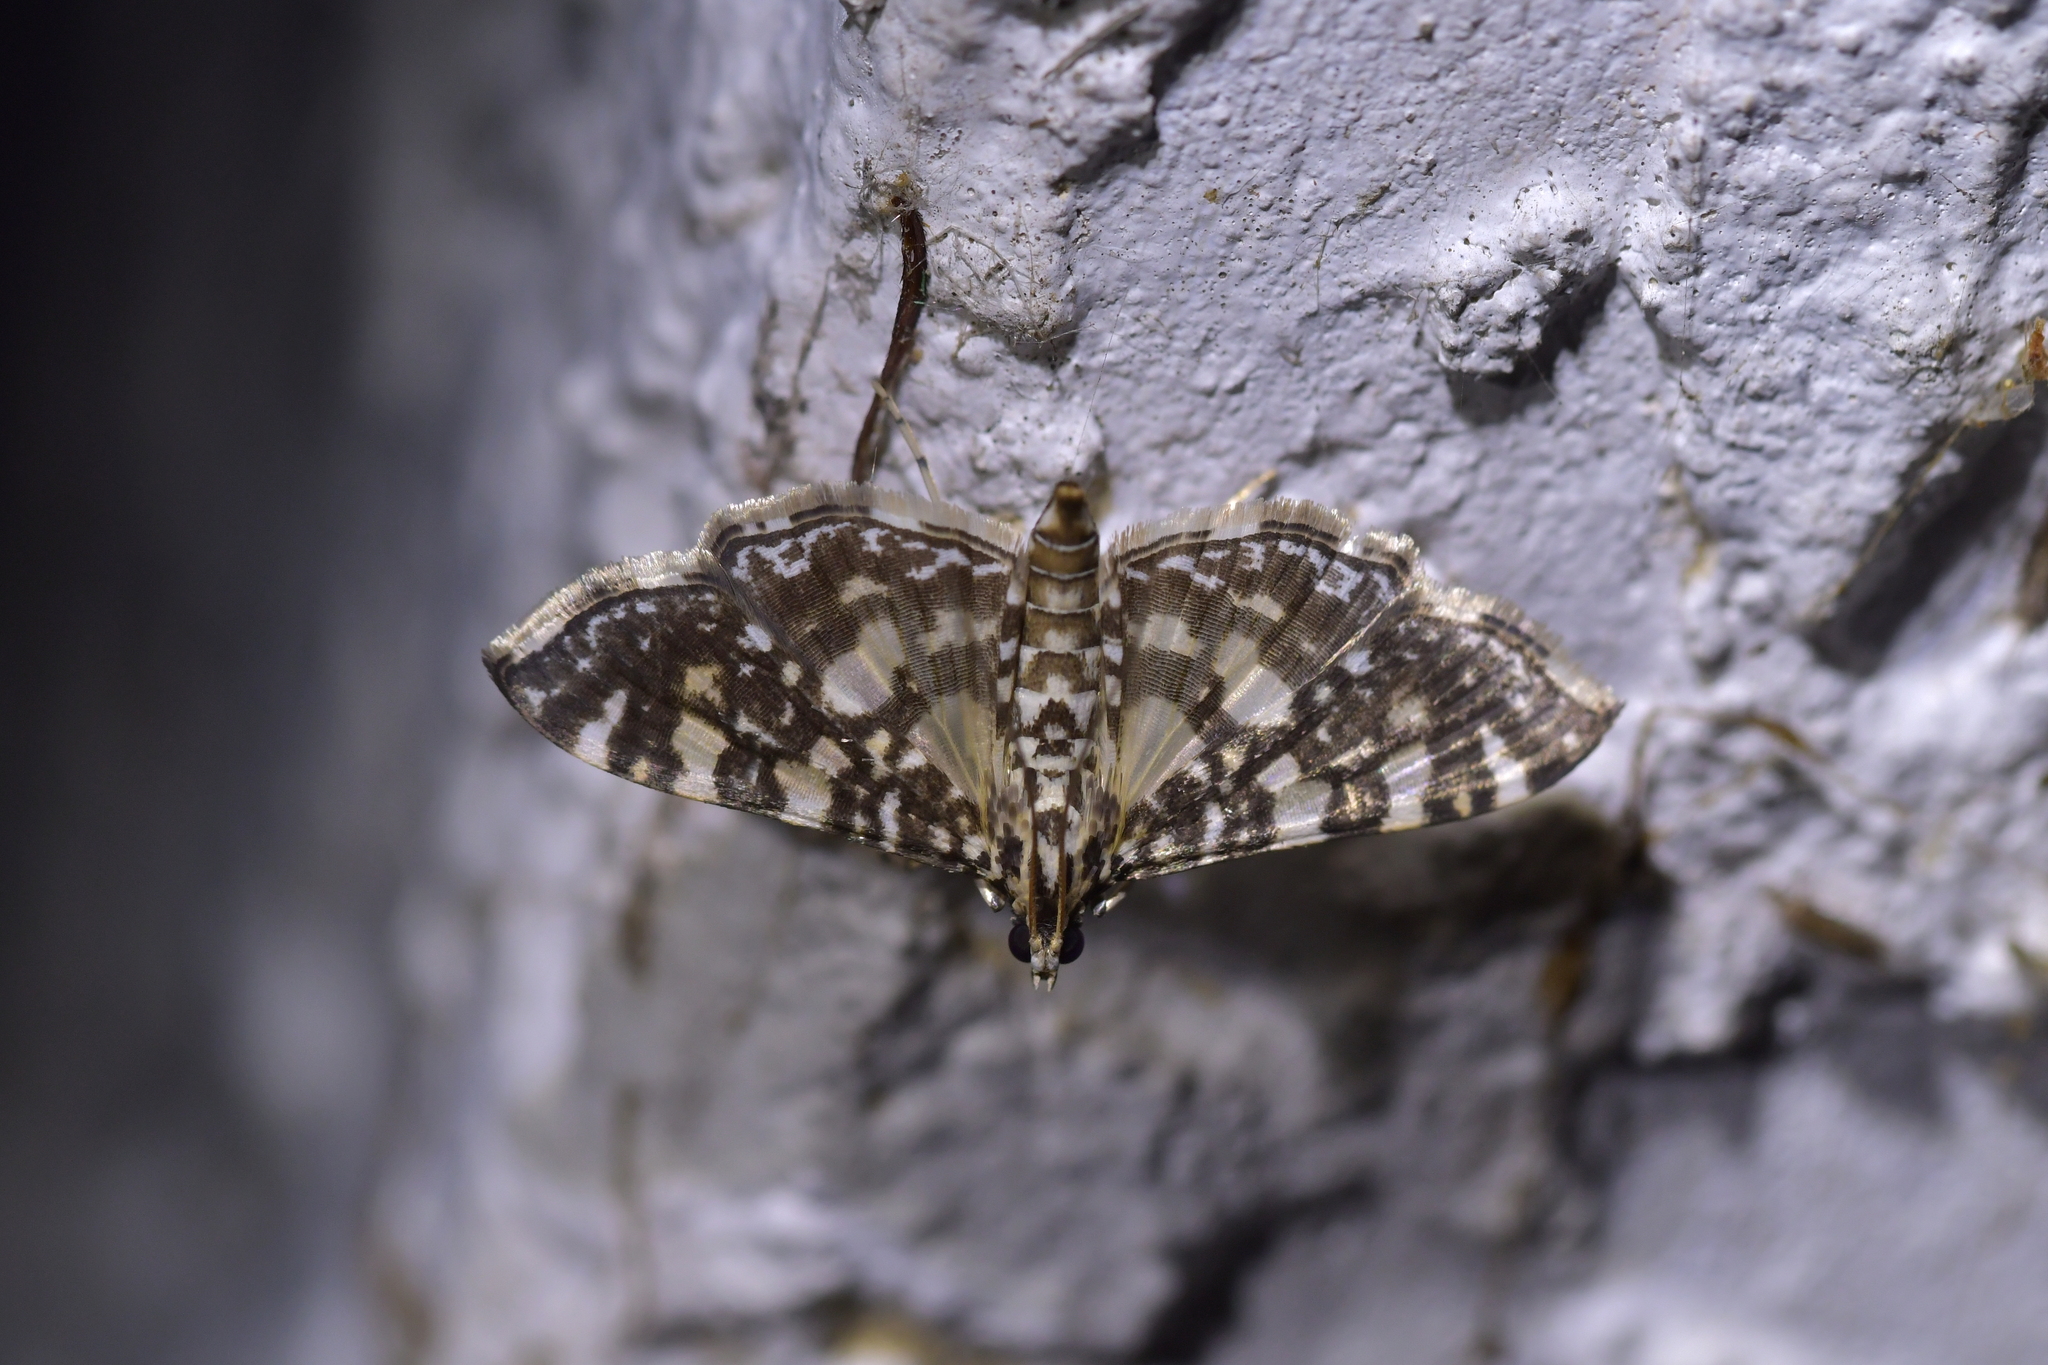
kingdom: Animalia
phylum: Arthropoda
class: Insecta
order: Lepidoptera
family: Crambidae
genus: Glyphodes
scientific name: Glyphodes onychinalis
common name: Swan plant moth
